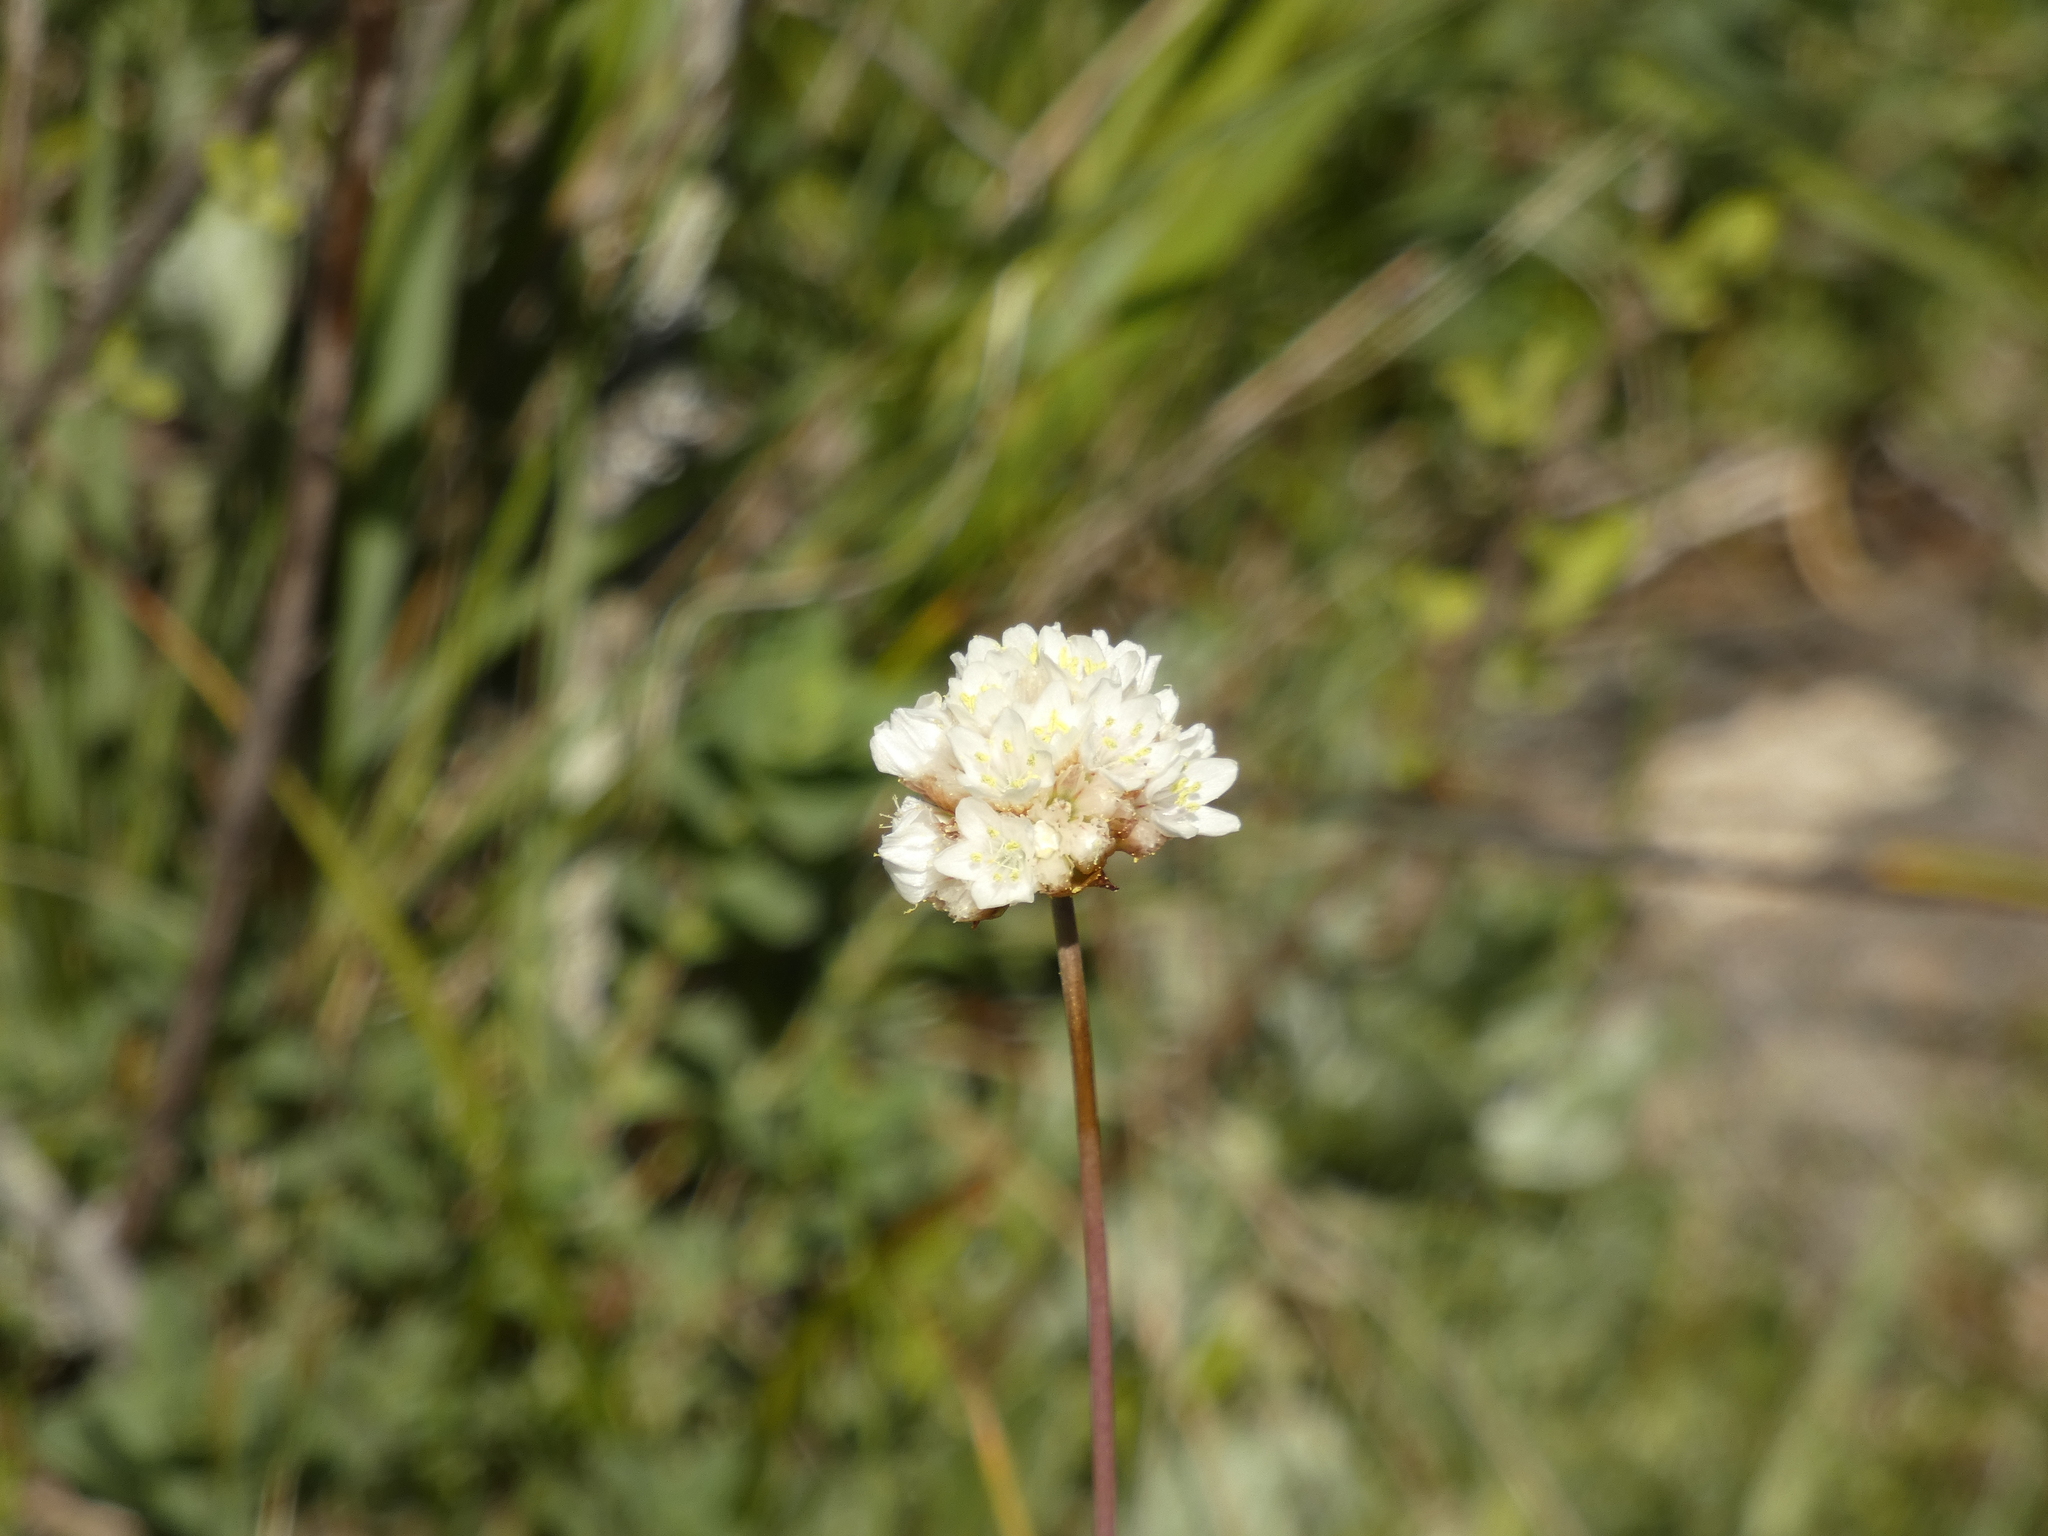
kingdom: Plantae
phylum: Tracheophyta
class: Magnoliopsida
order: Caryophyllales
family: Plumbaginaceae
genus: Armeria
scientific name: Armeria curvifolia
